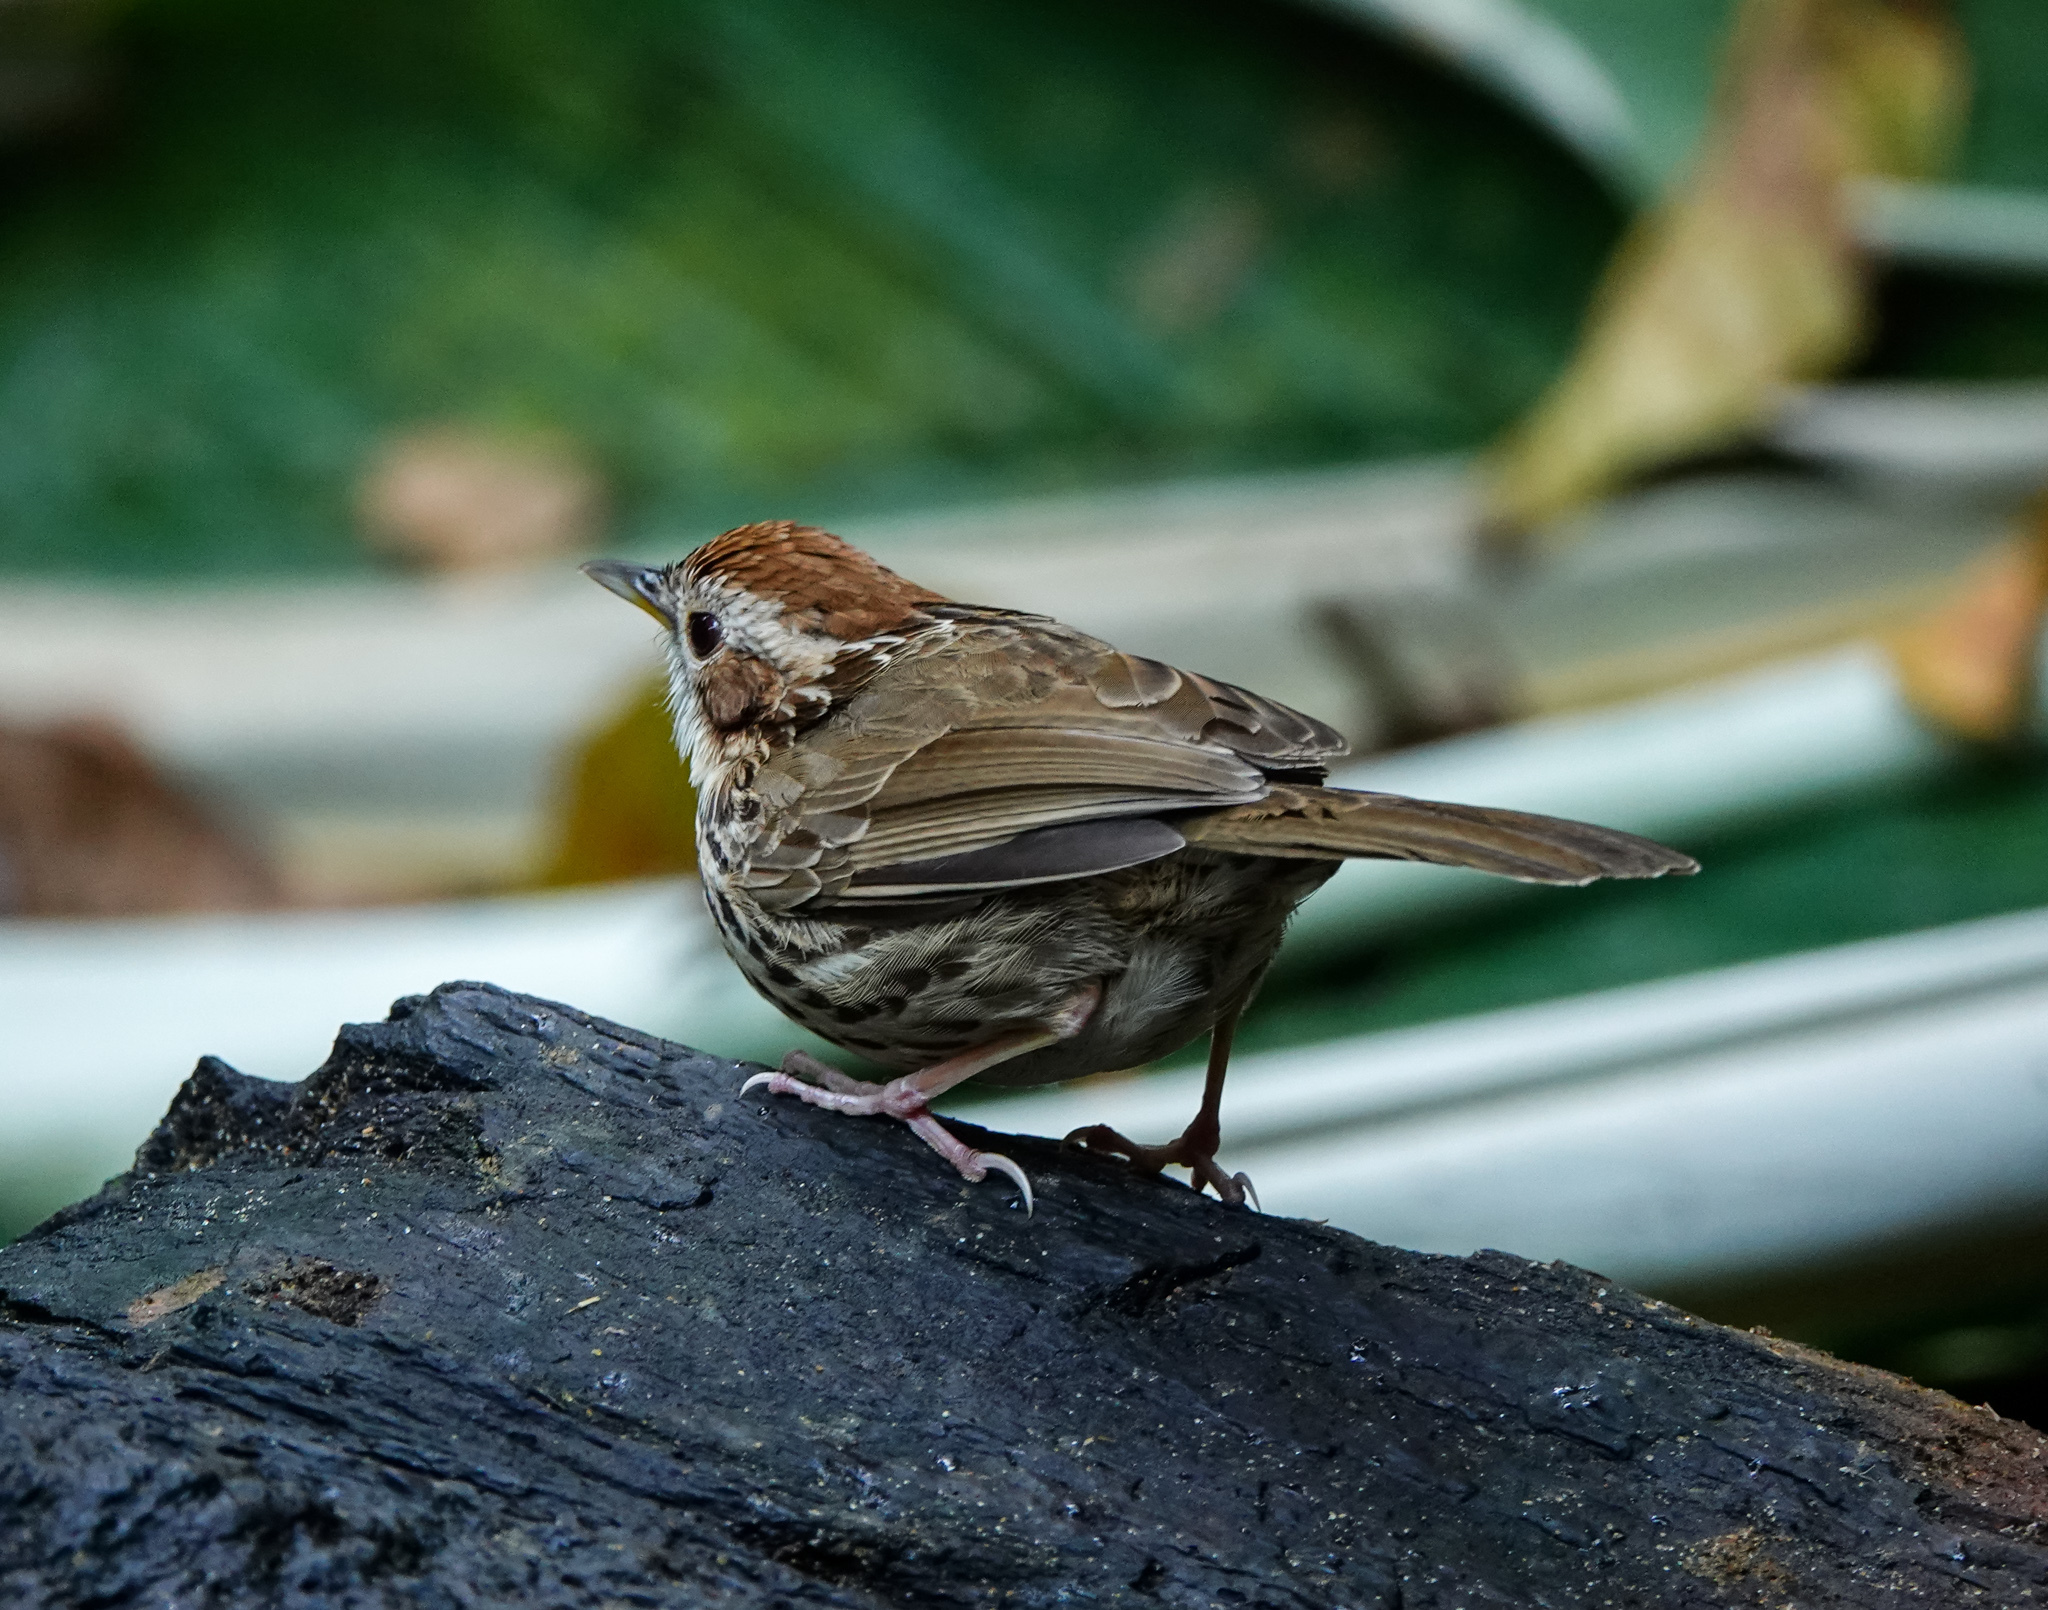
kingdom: Animalia
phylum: Chordata
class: Aves
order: Passeriformes
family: Pellorneidae
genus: Pellorneum
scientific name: Pellorneum ruficeps
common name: Puff-throated babbler
